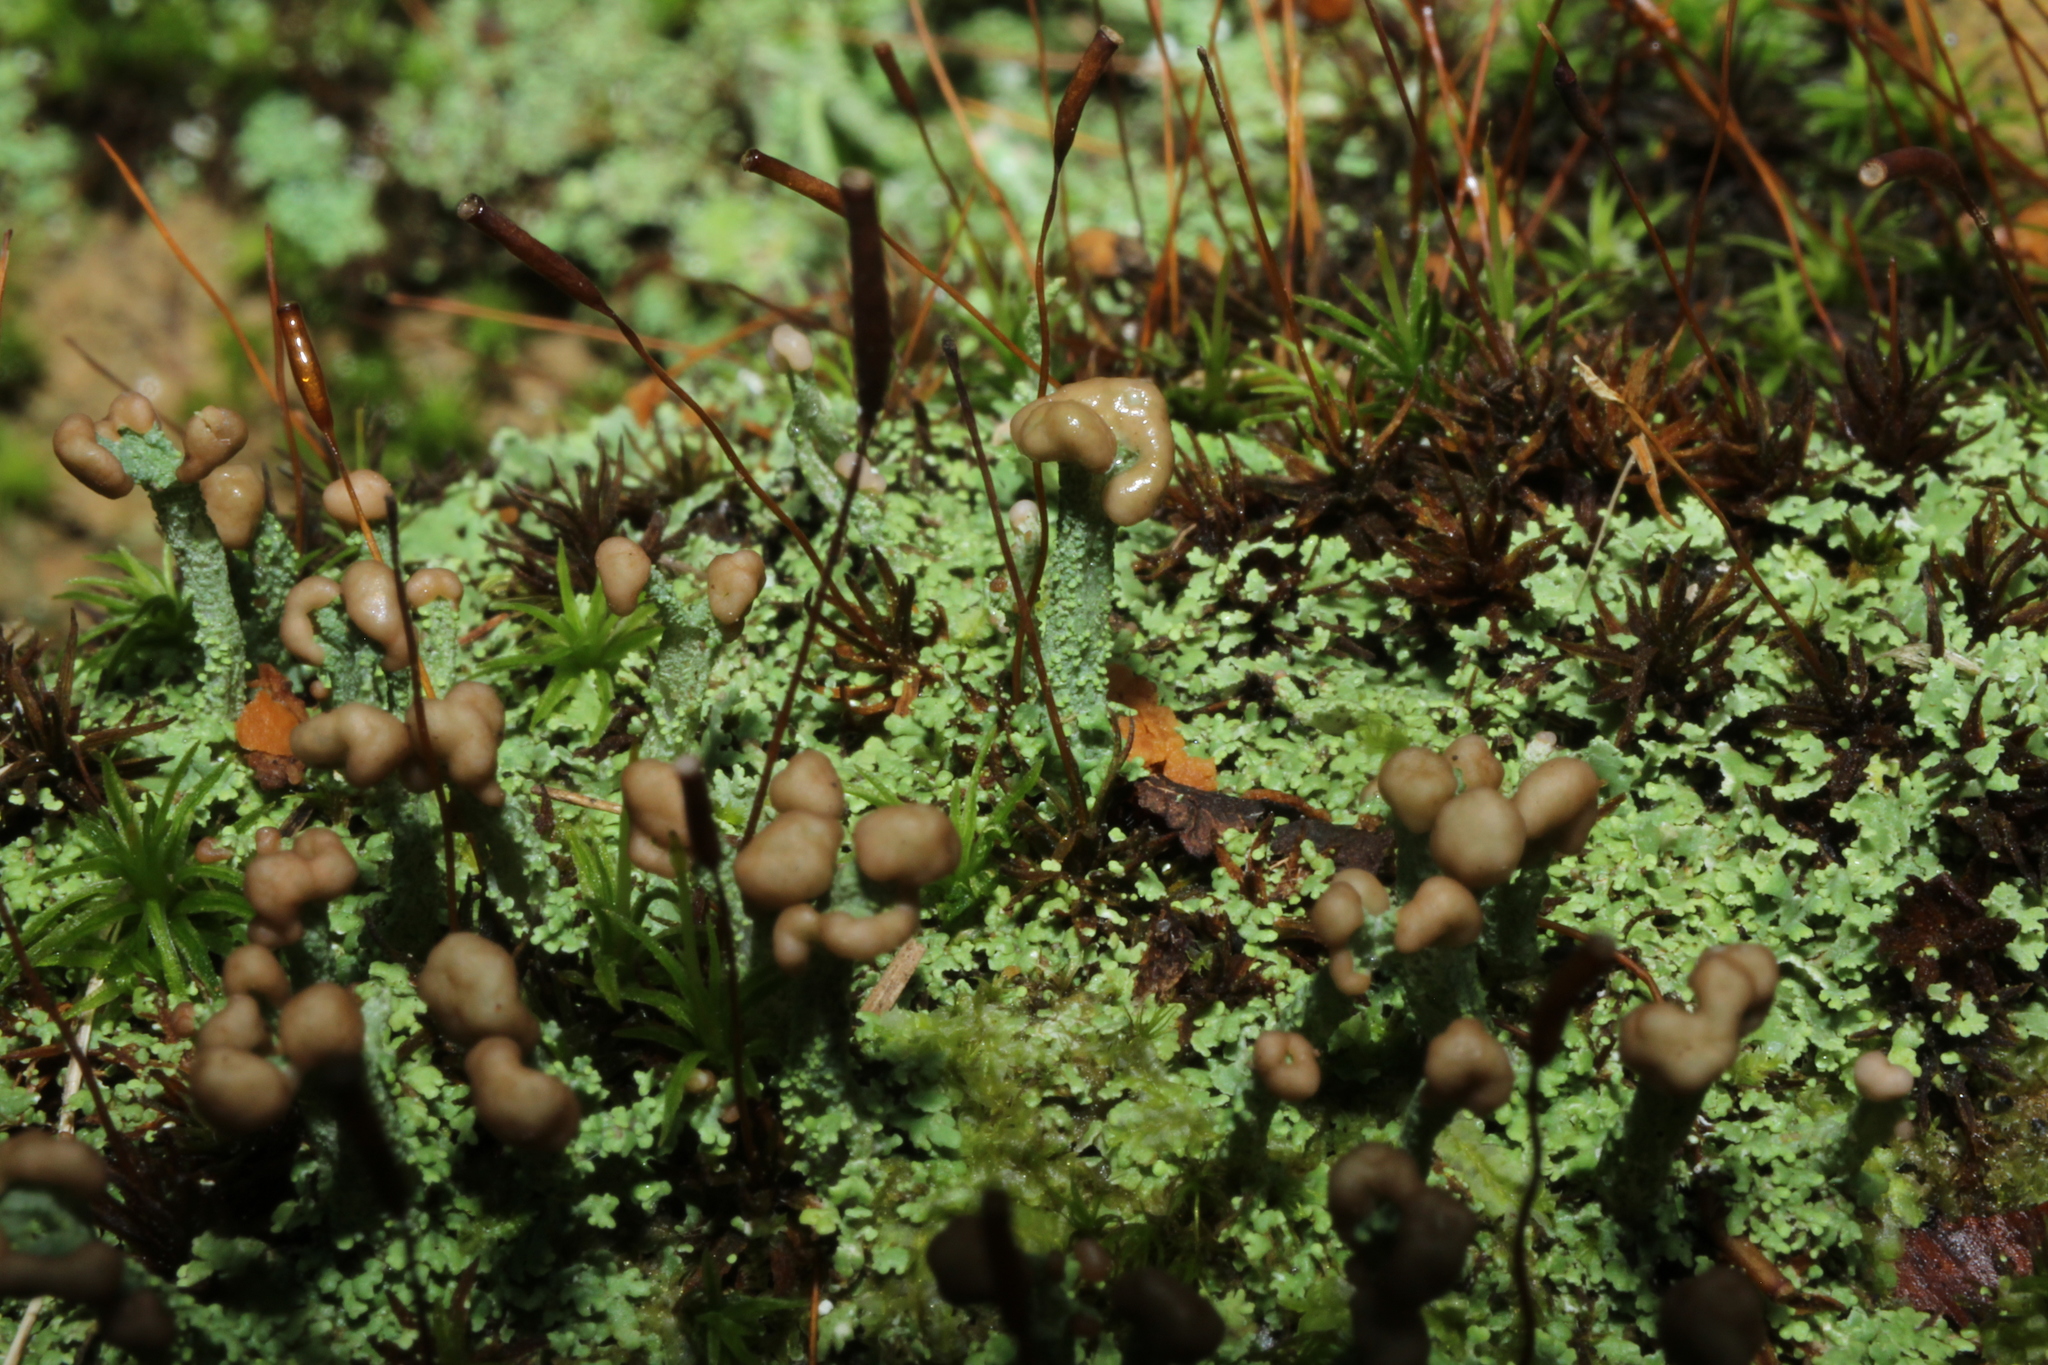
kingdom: Fungi
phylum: Ascomycota
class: Lecanoromycetes
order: Lecanorales
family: Cladoniaceae
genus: Cladonia
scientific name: Cladonia peziziformis
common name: Cup lichen
